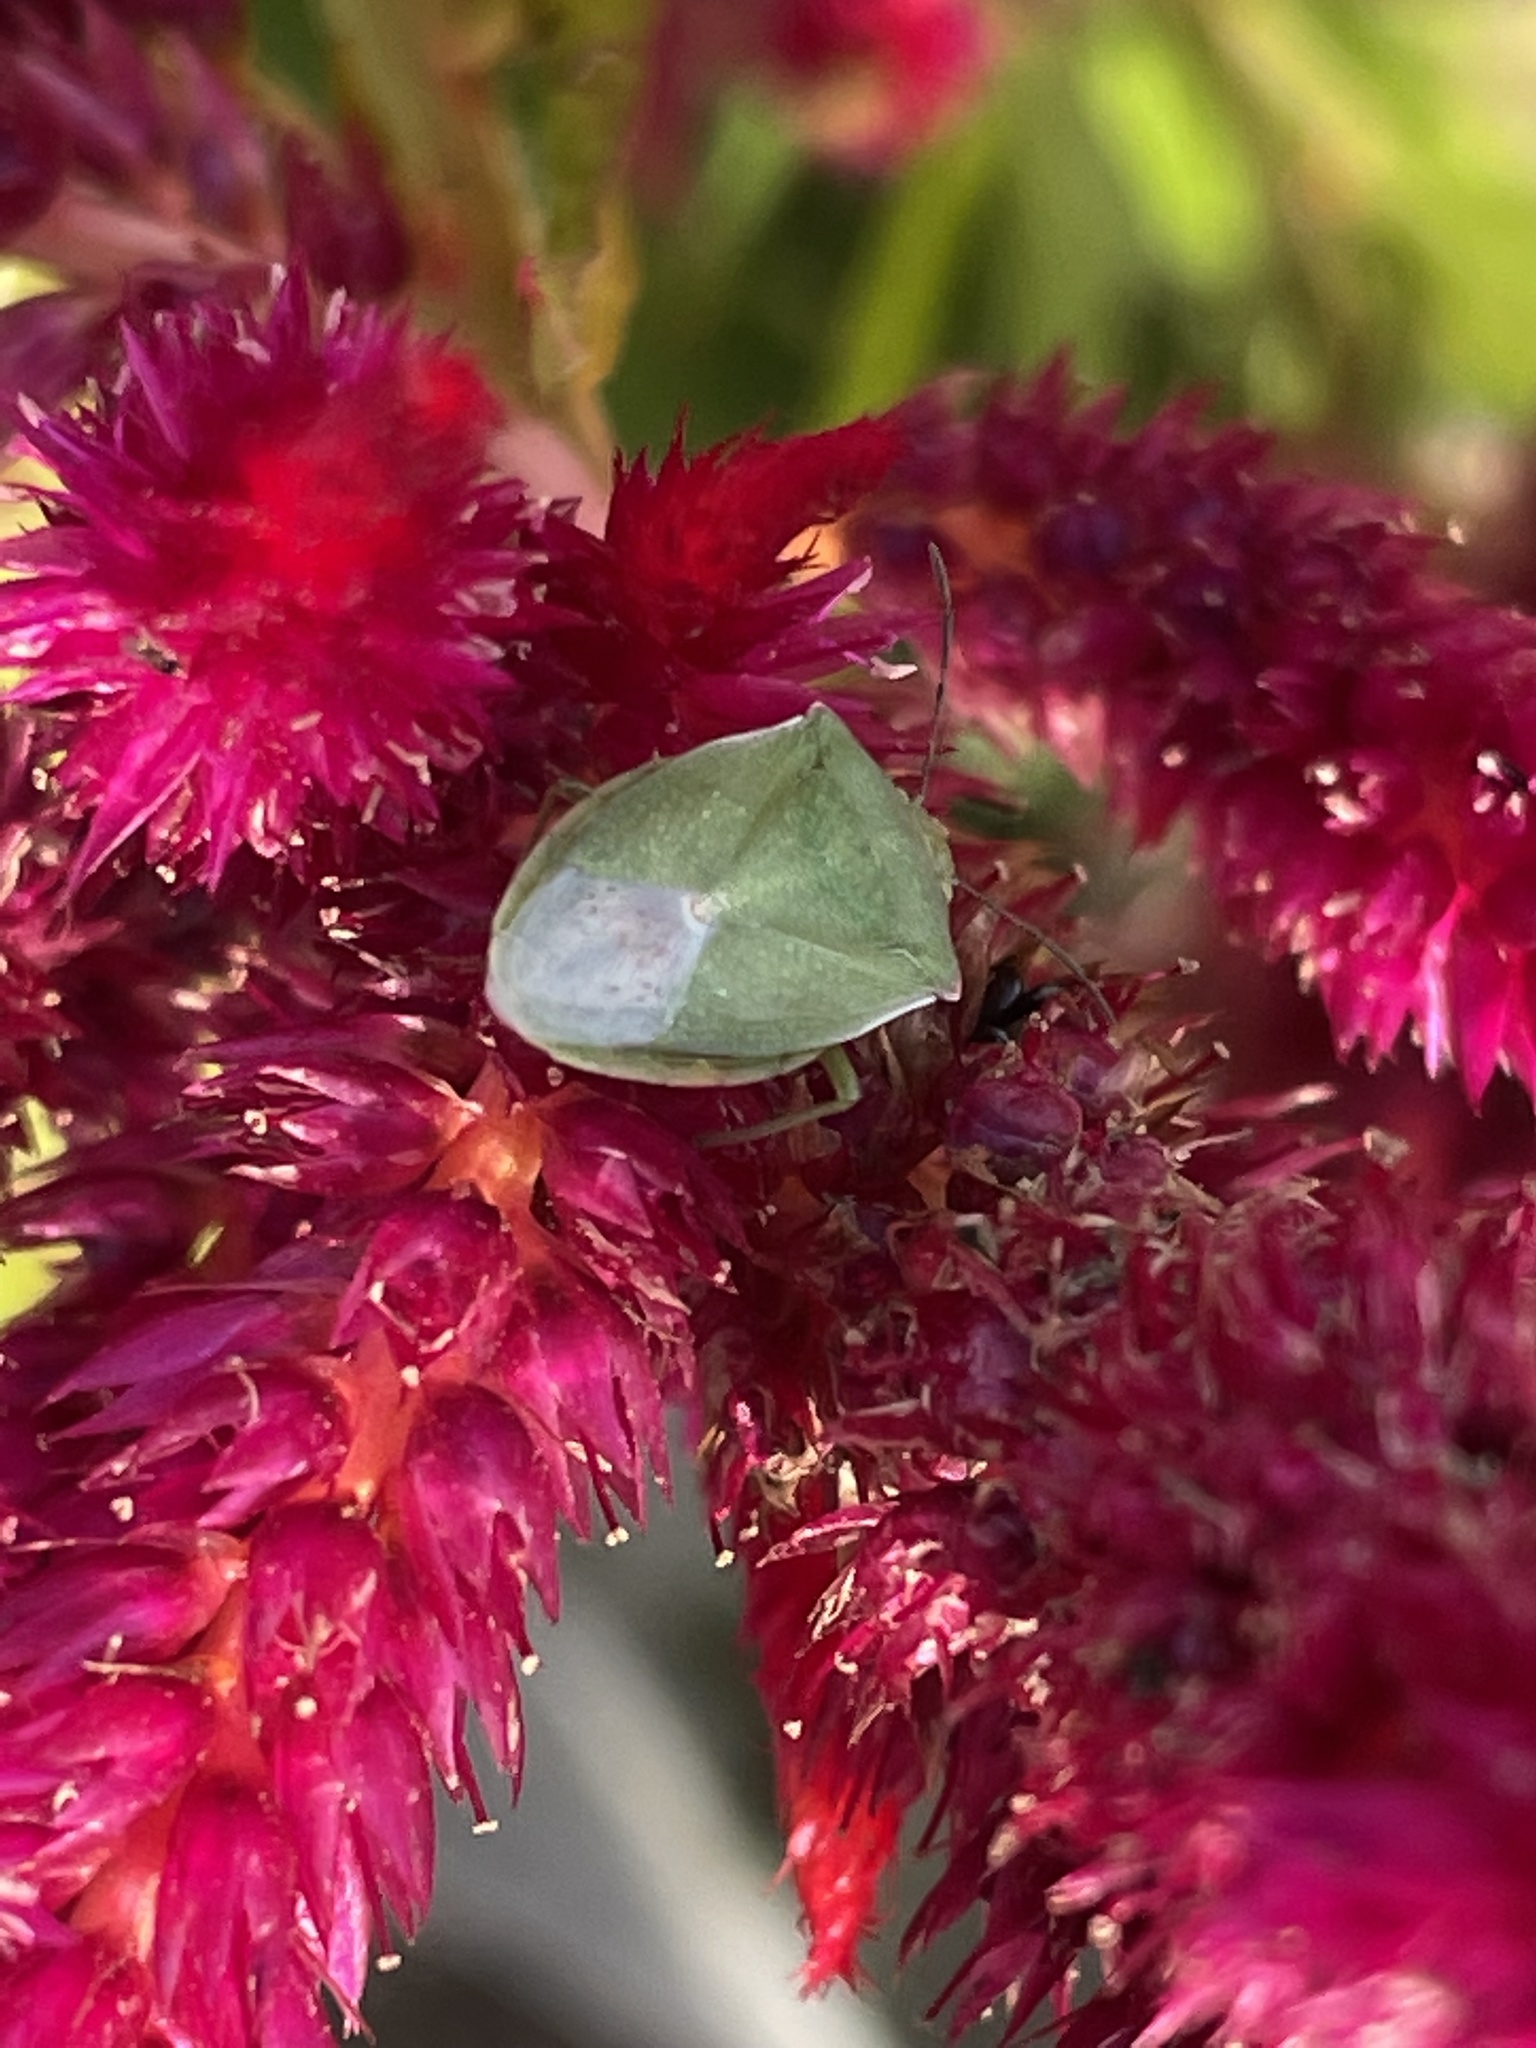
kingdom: Animalia
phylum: Arthropoda
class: Insecta
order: Hemiptera
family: Pentatomidae
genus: Thyanta
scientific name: Thyanta
